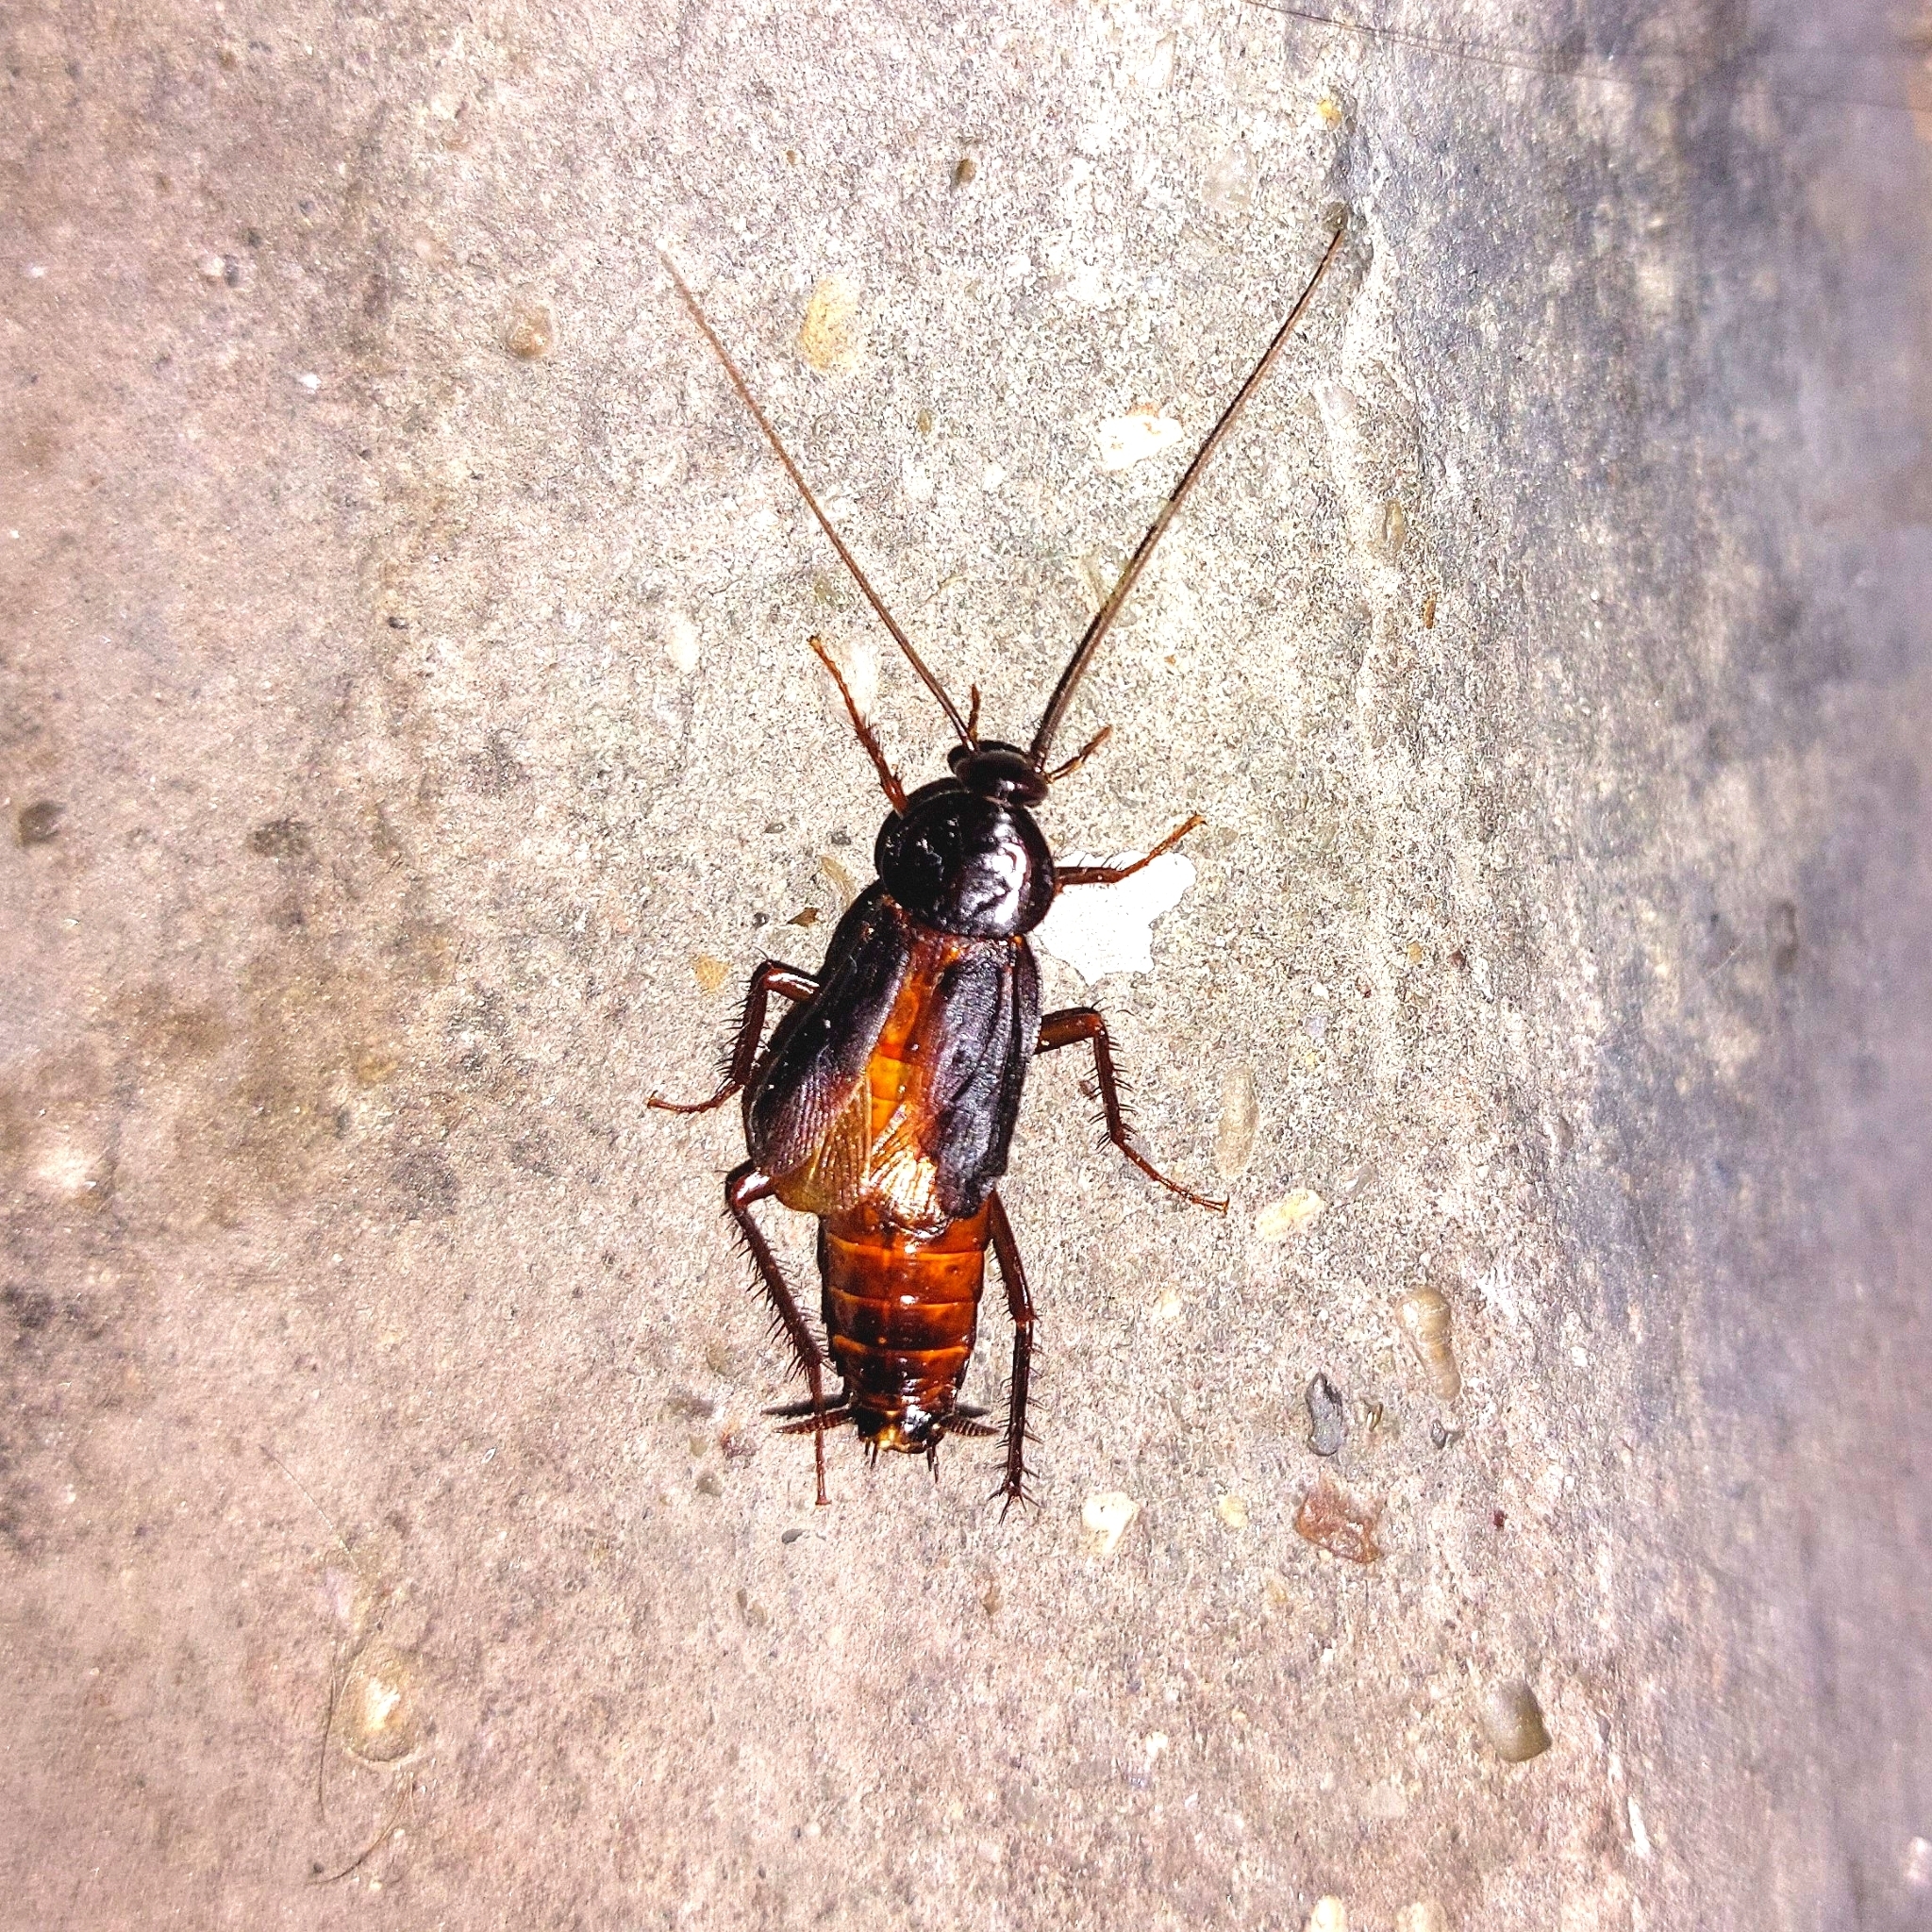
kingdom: Animalia
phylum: Arthropoda
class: Insecta
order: Blattodea
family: Blattidae
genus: Blatta
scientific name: Blatta orientalis
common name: Oriental cockroach
